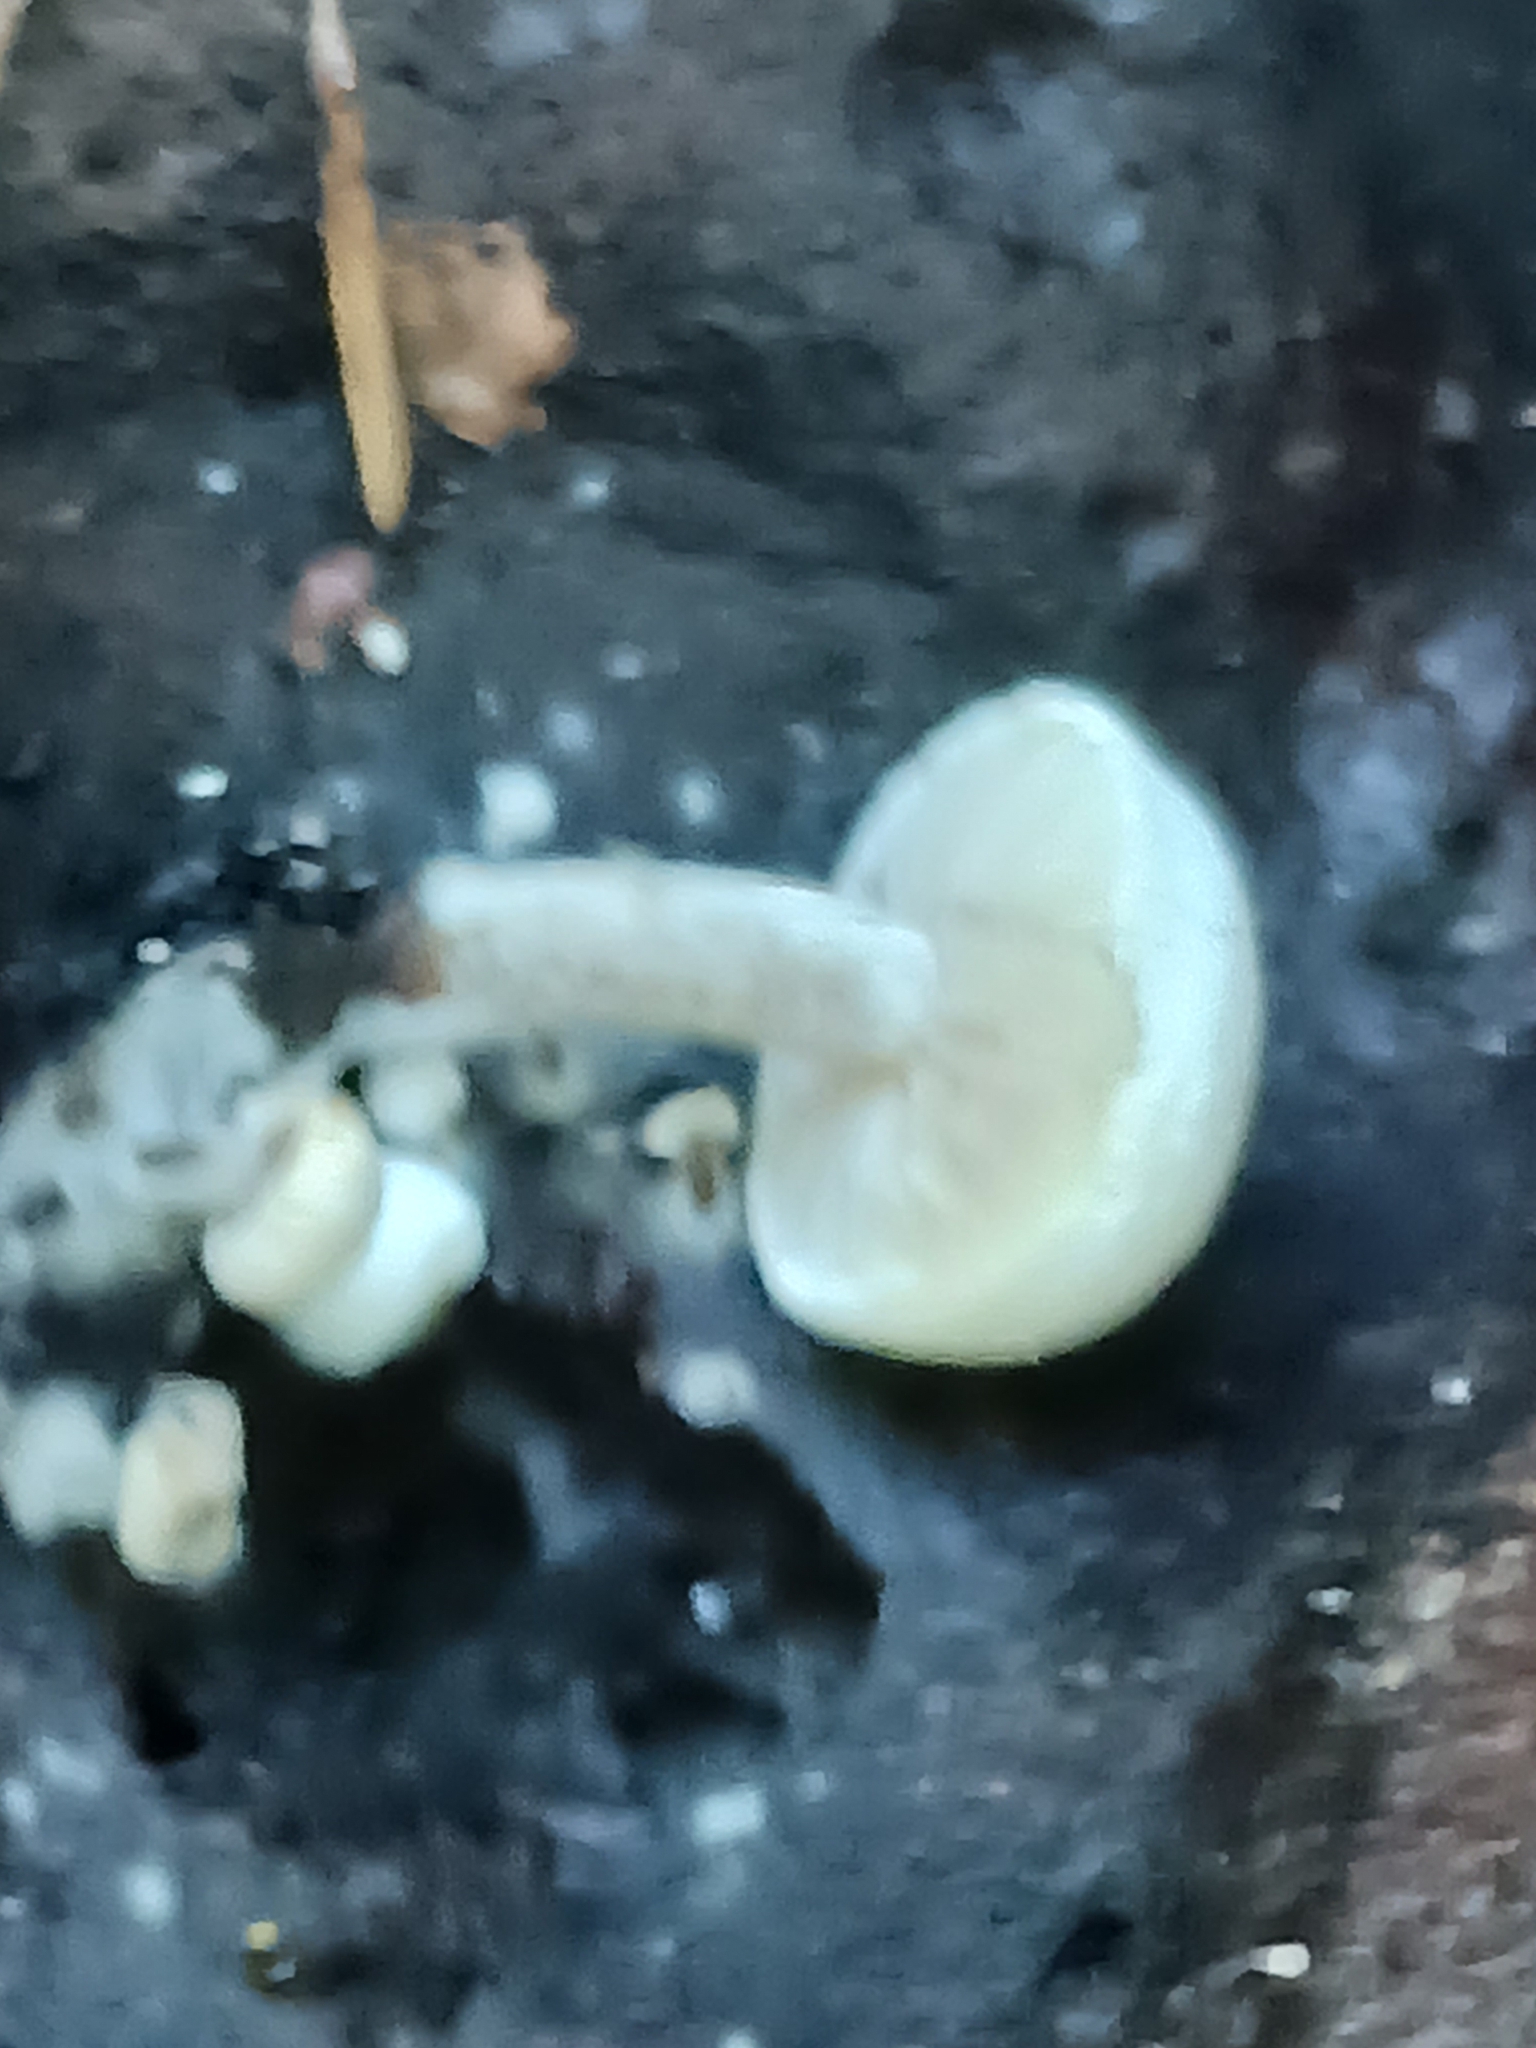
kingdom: Fungi
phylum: Basidiomycota
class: Agaricomycetes
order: Agaricales
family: Lyophyllaceae
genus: Asterophora
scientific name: Asterophora lycoperdoides
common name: Pick-a-back toadstool
